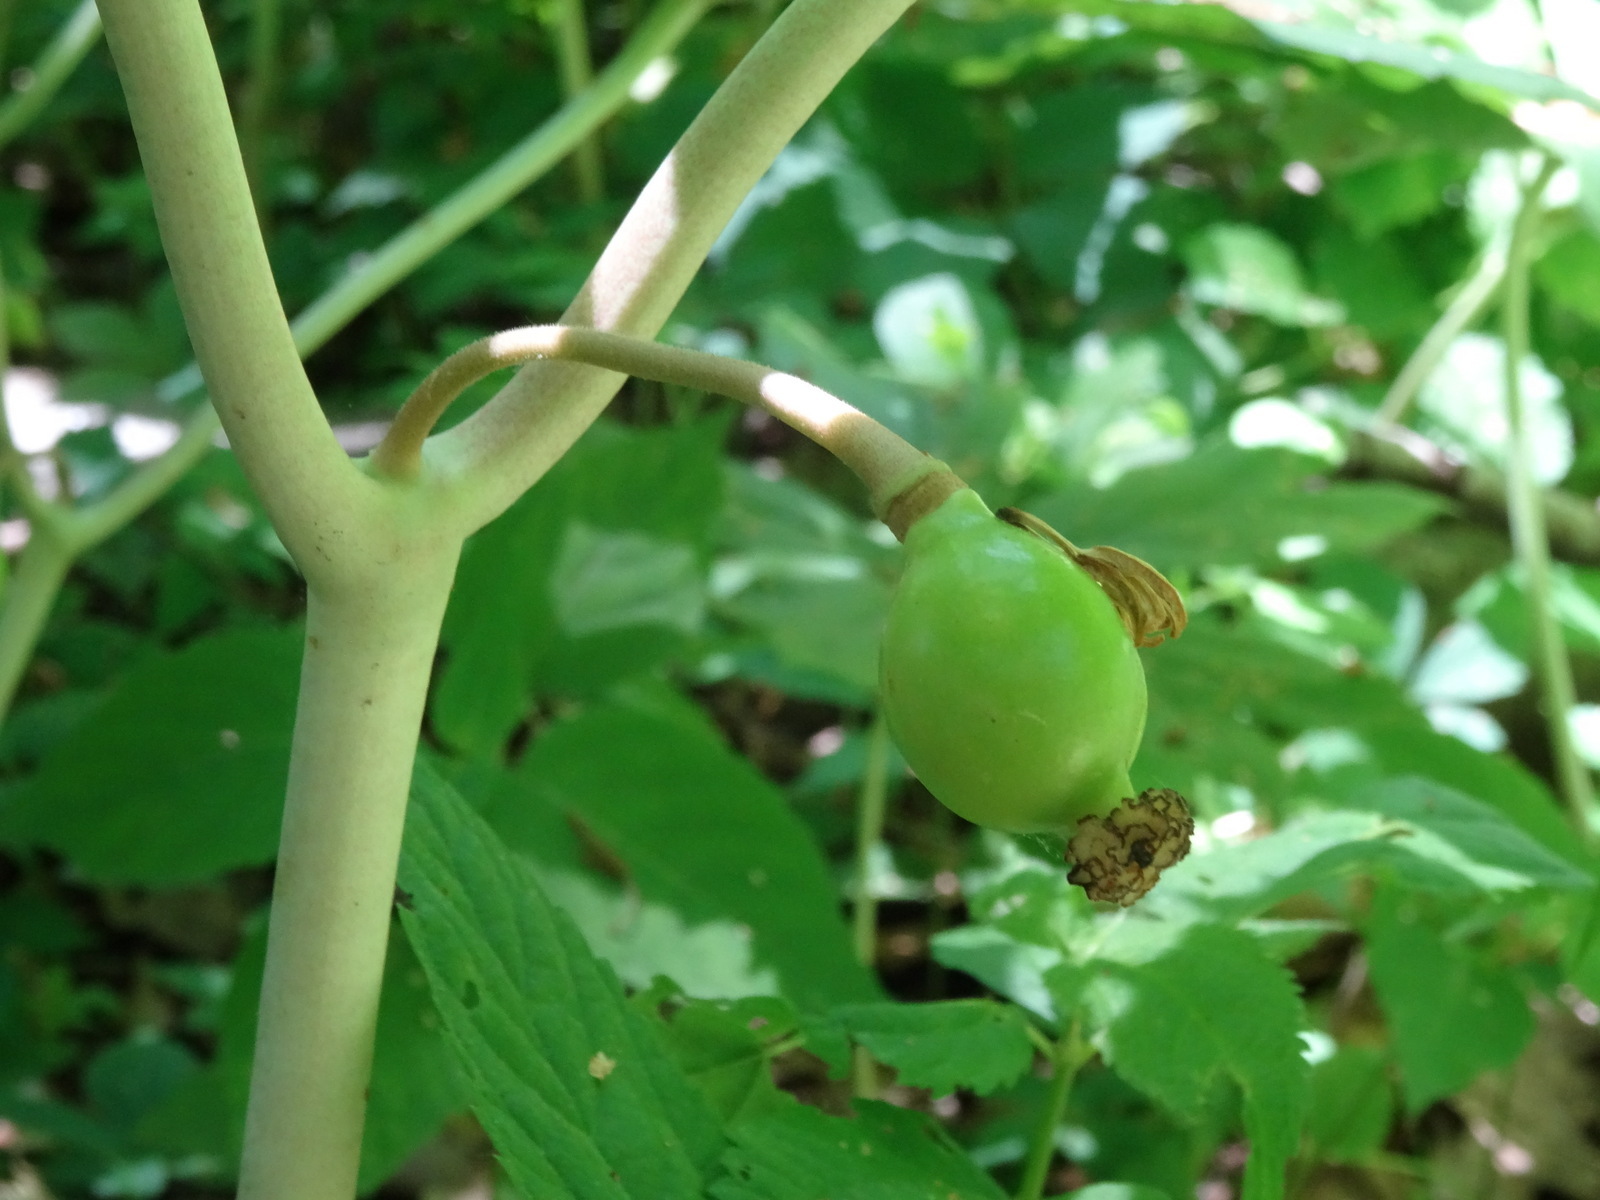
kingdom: Plantae
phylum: Tracheophyta
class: Magnoliopsida
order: Ranunculales
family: Berberidaceae
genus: Podophyllum
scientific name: Podophyllum peltatum
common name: Wild mandrake
